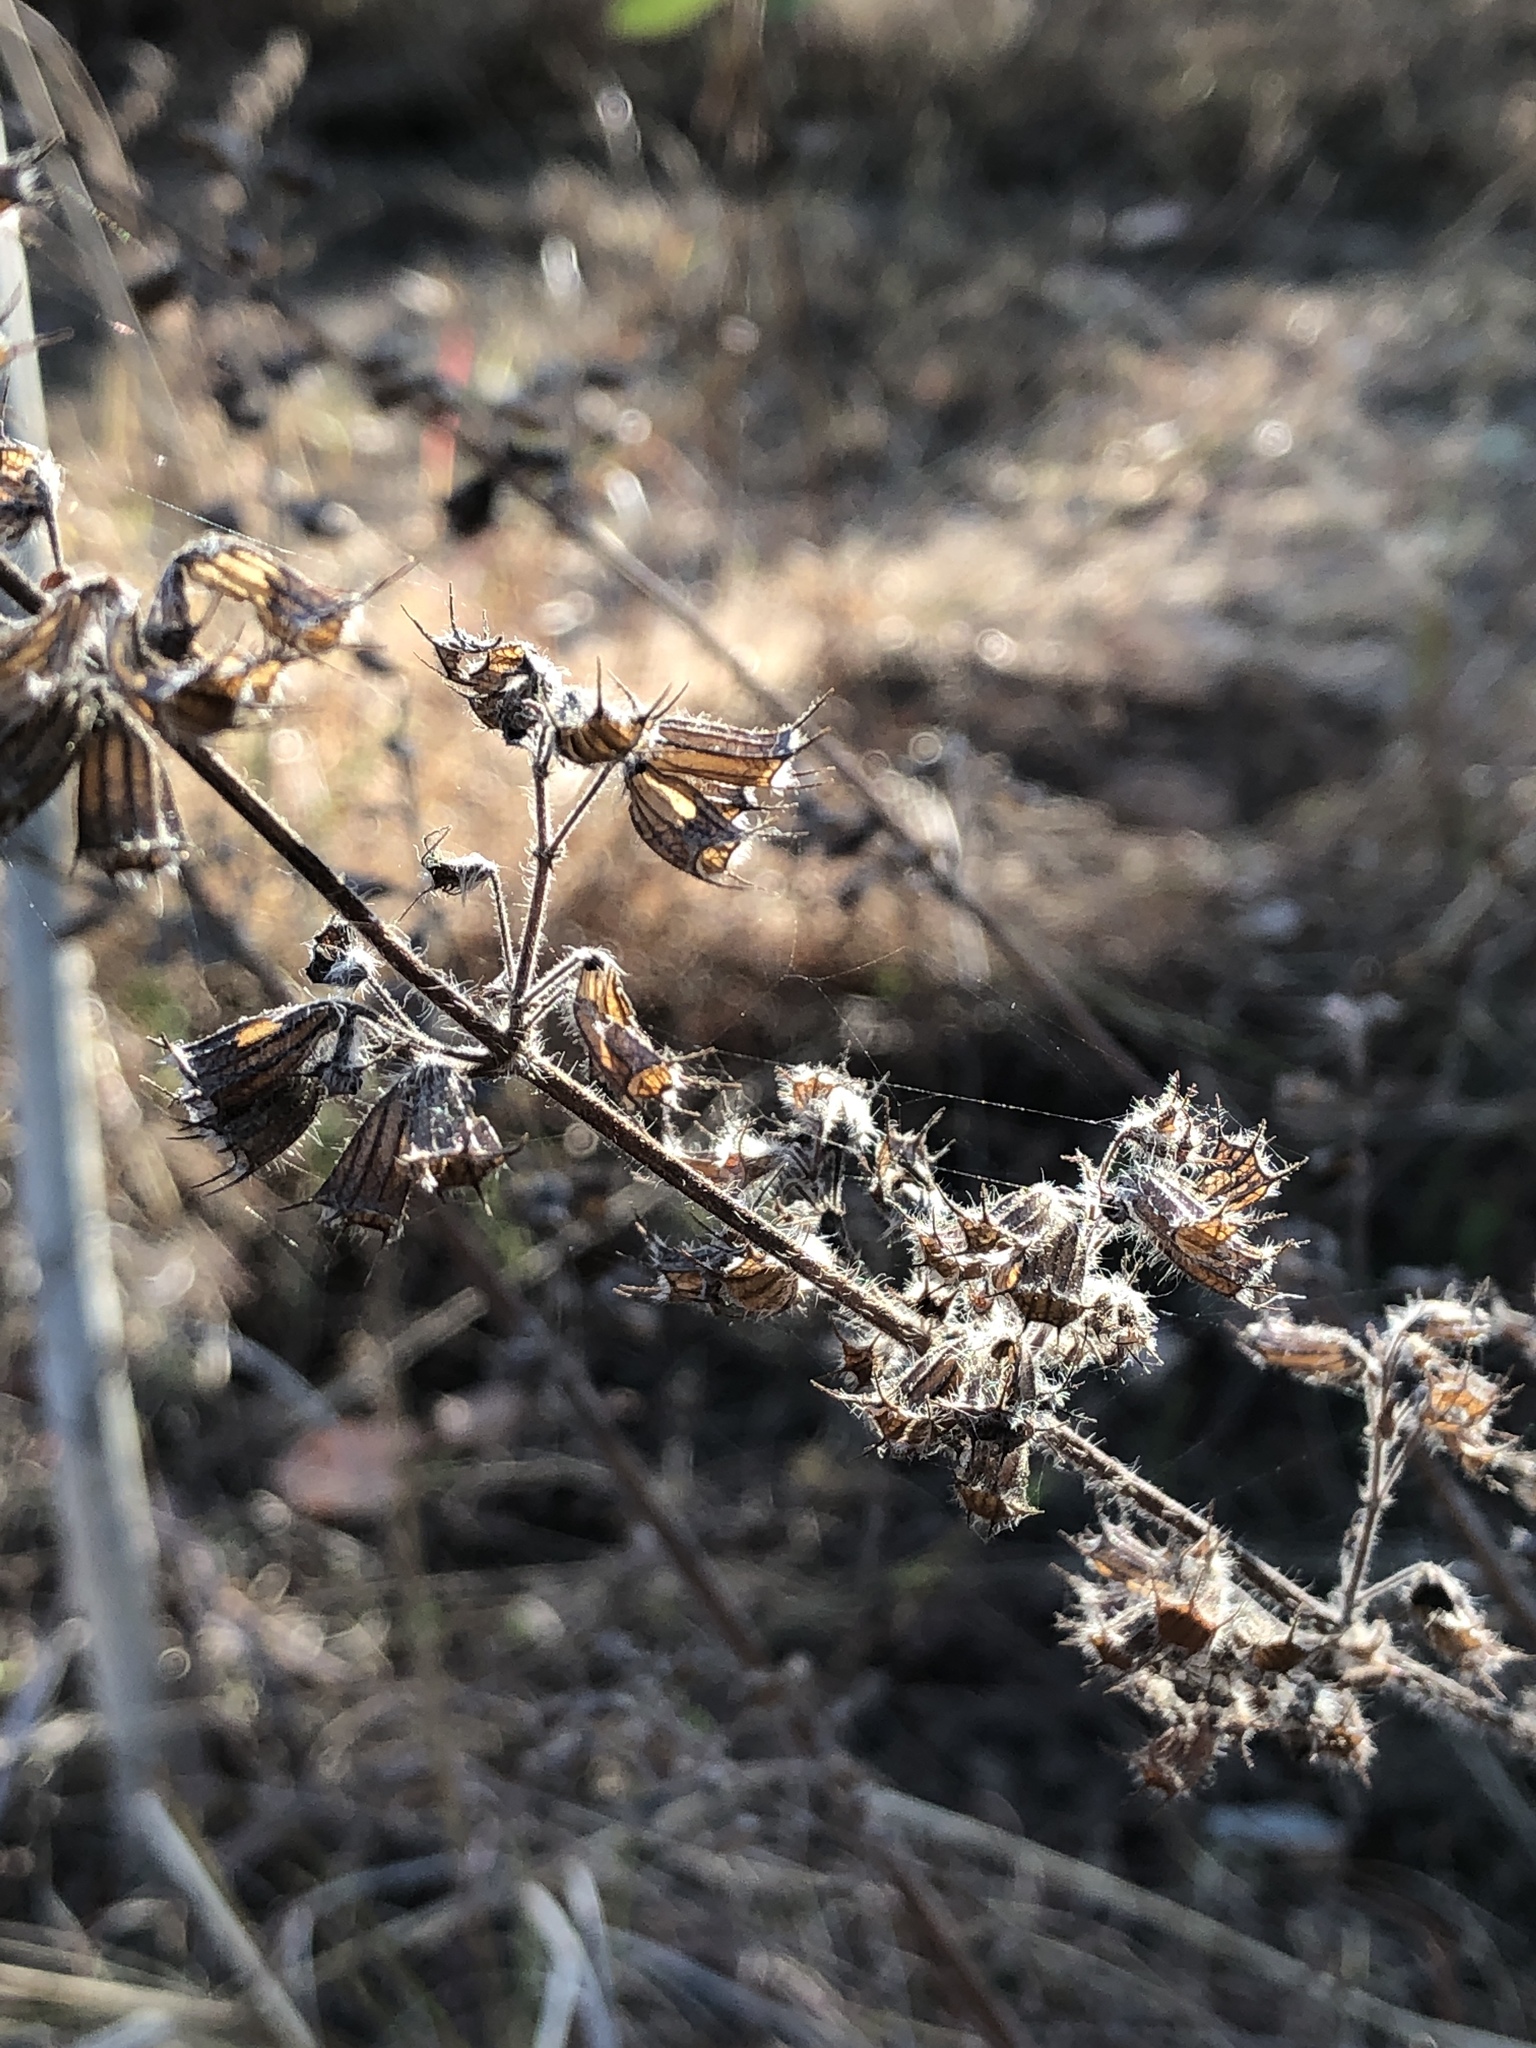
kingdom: Plantae
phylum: Tracheophyta
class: Magnoliopsida
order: Lamiales
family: Lamiaceae
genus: Mesosphaerum
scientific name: Mesosphaerum suaveolens
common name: Pignut
